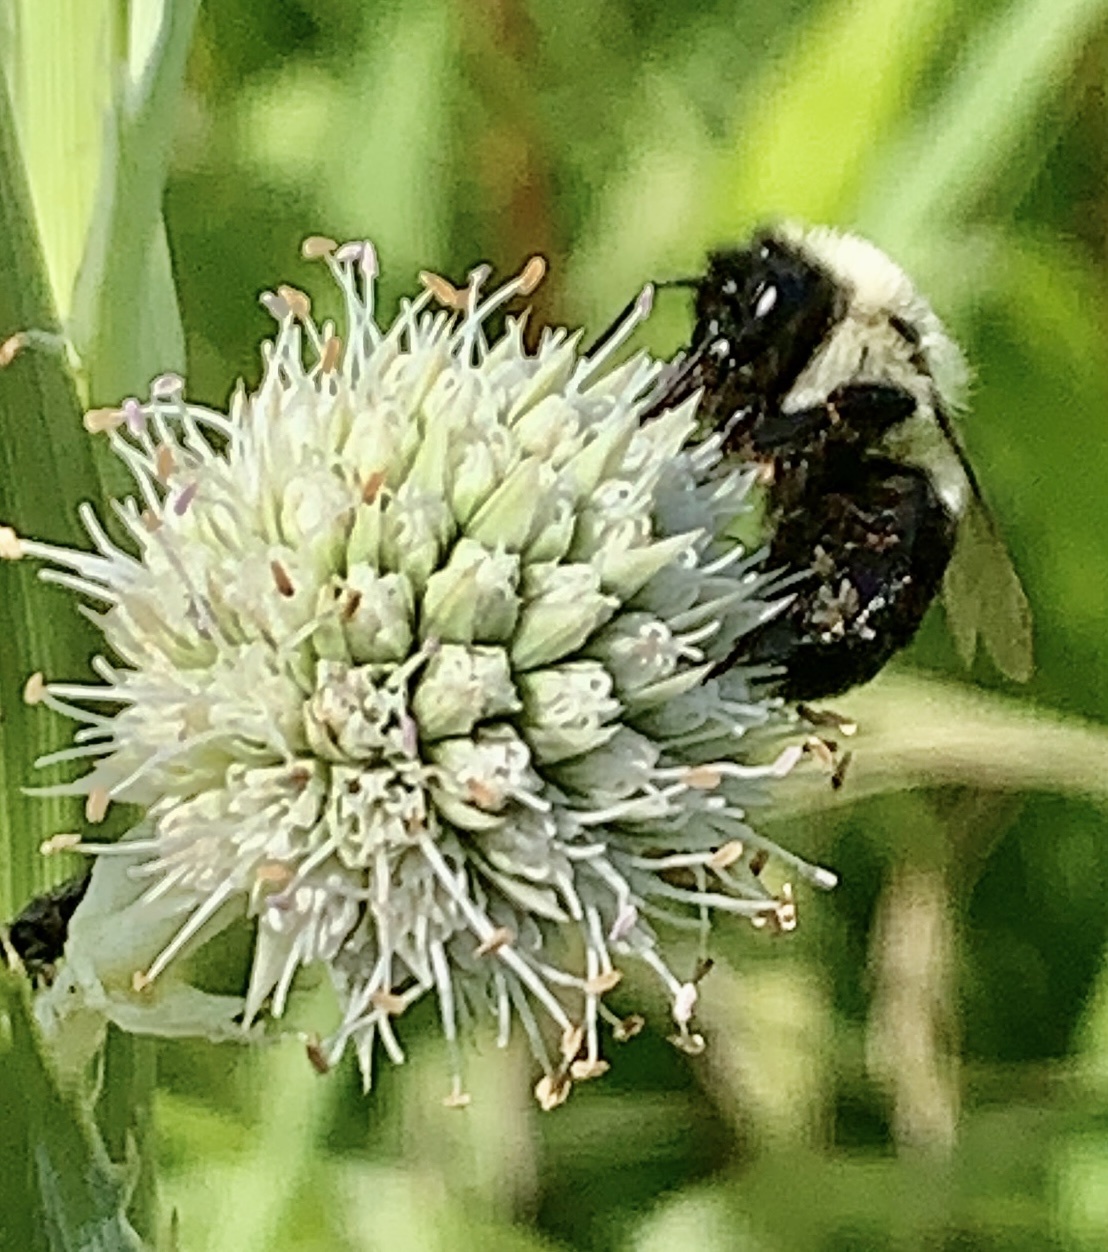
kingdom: Animalia
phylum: Arthropoda
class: Insecta
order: Hymenoptera
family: Apidae
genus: Bombus
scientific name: Bombus impatiens
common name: Common eastern bumble bee
